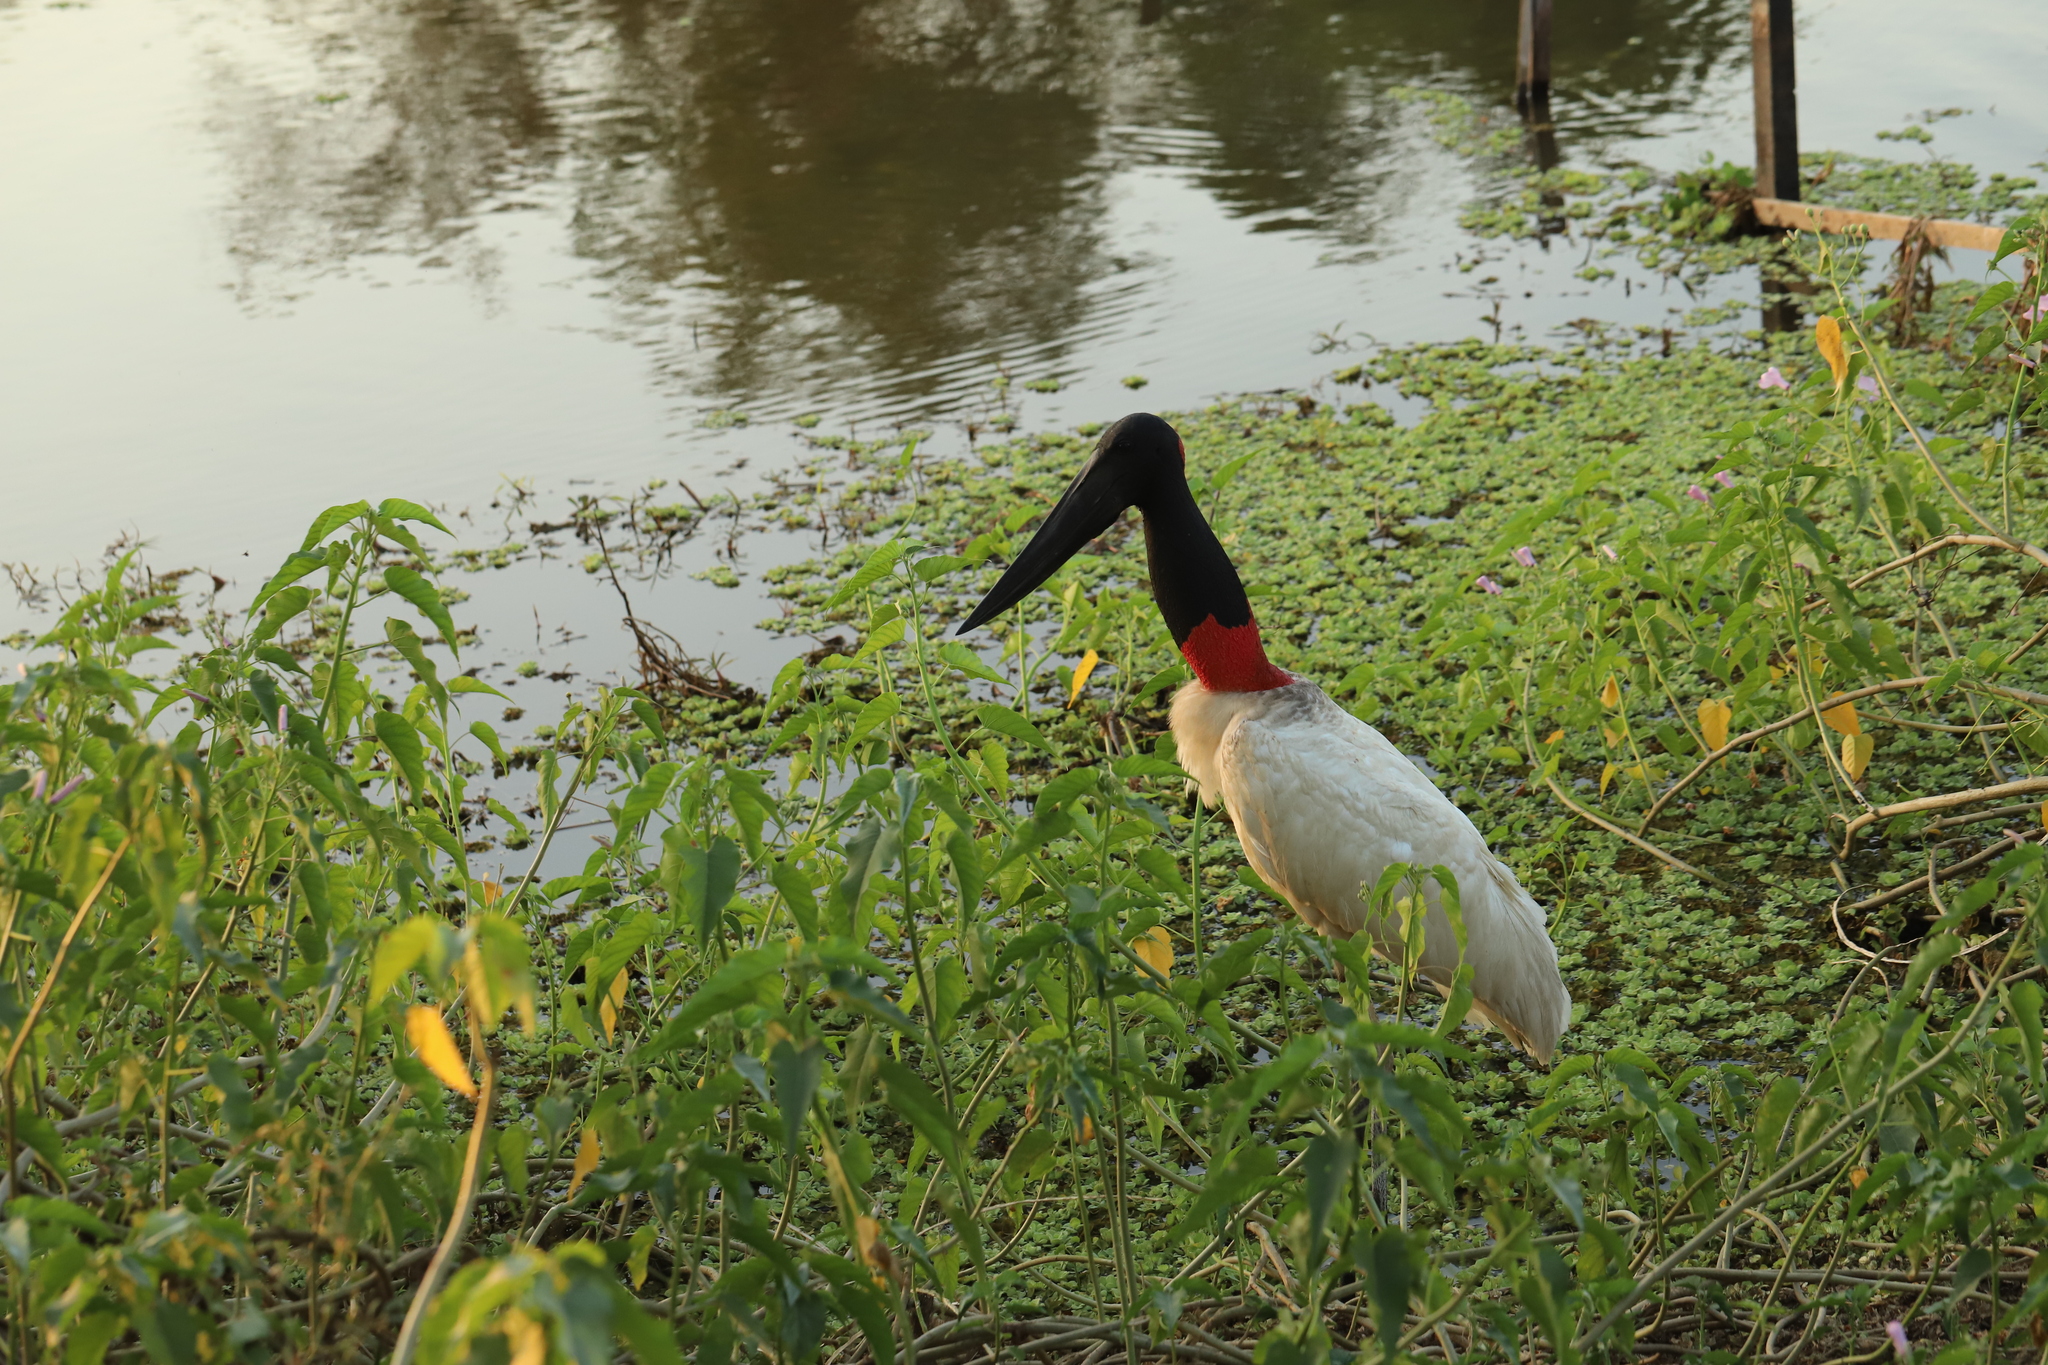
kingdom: Animalia
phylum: Chordata
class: Aves
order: Ciconiiformes
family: Ciconiidae
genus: Jabiru
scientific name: Jabiru mycteria
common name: Jabiru
